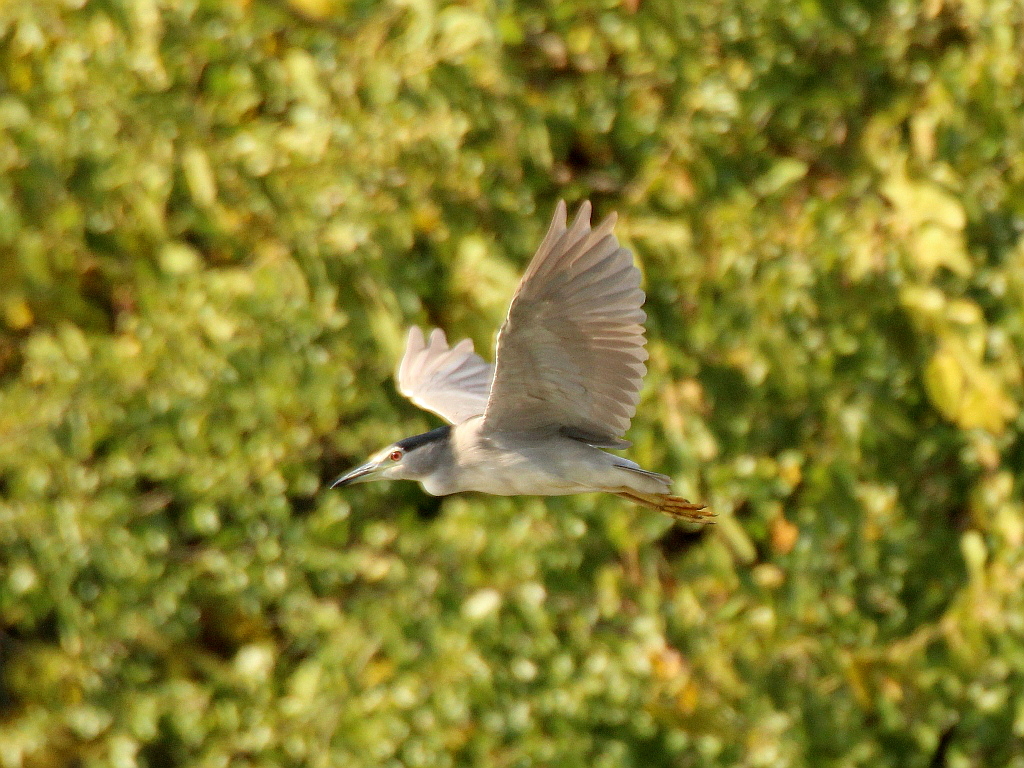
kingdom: Animalia
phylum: Chordata
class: Aves
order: Pelecaniformes
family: Ardeidae
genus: Nycticorax
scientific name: Nycticorax nycticorax
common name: Black-crowned night heron
